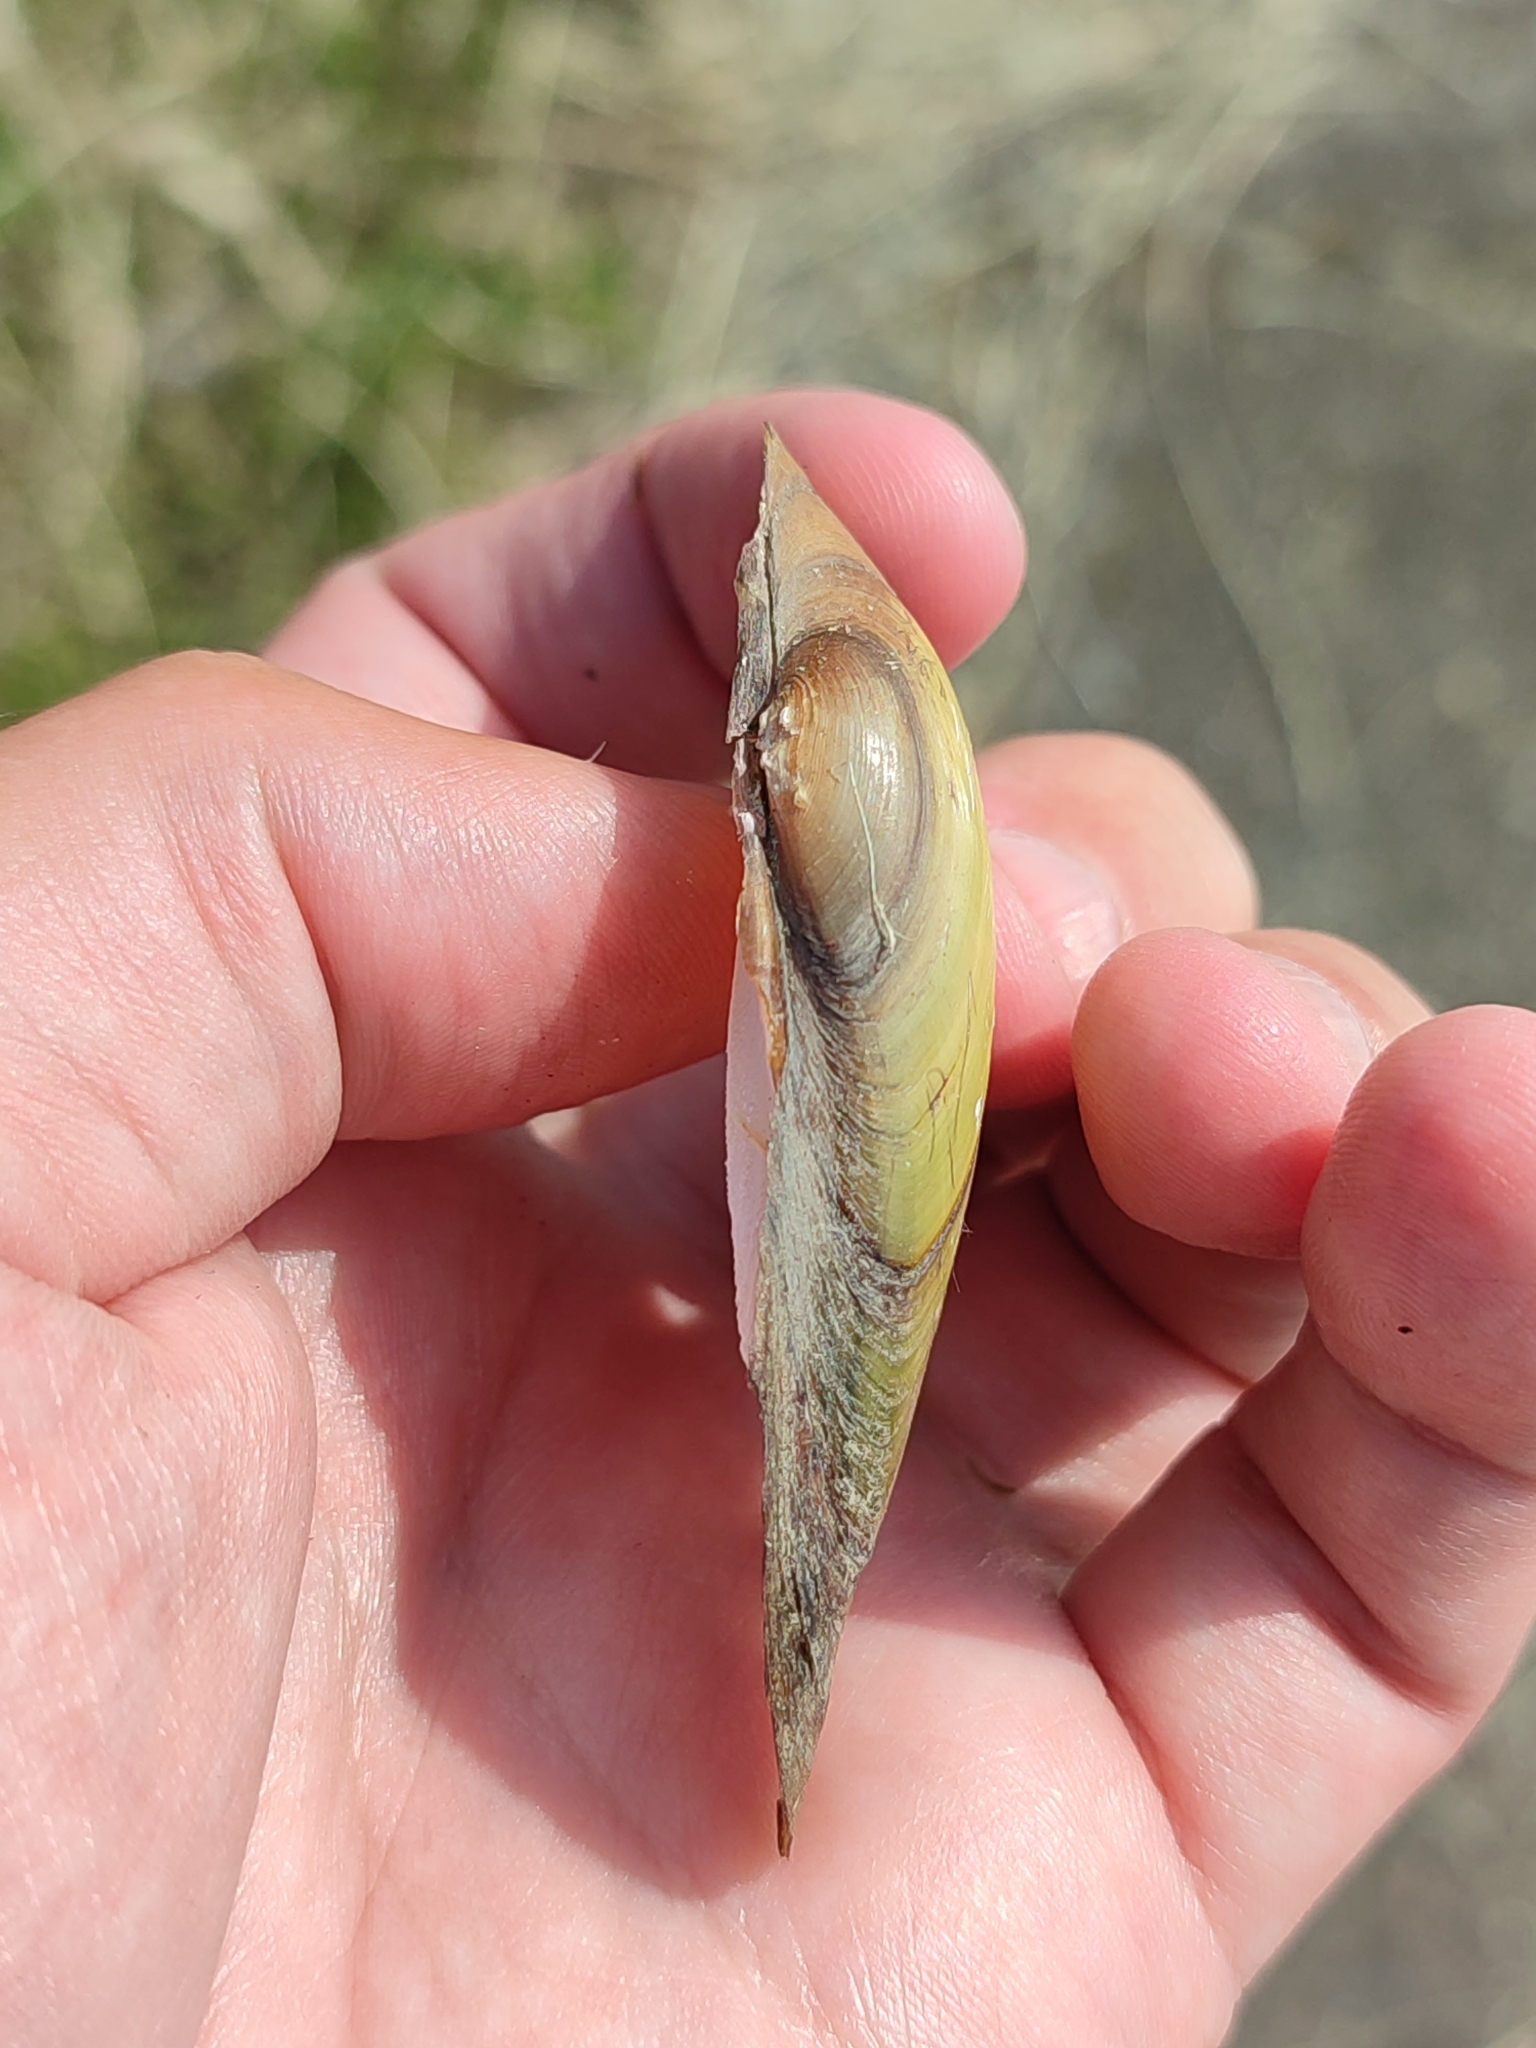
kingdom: Animalia
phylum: Mollusca
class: Bivalvia
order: Unionida
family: Unionidae
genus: Unio
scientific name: Unio pictorum
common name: Painter's mussel
